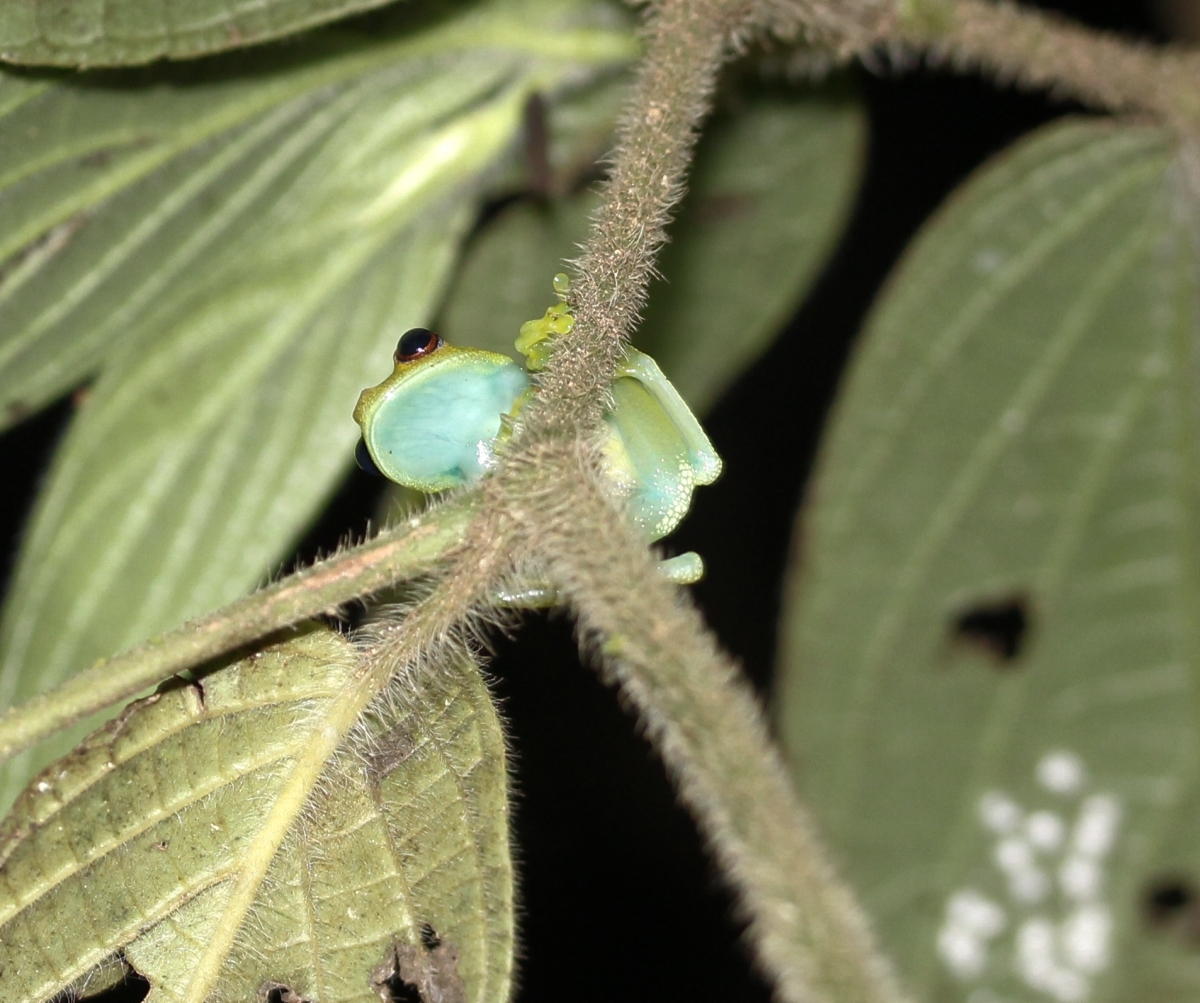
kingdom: Animalia
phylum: Chordata
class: Amphibia
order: Anura
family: Hylidae
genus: Boana
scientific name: Boana
